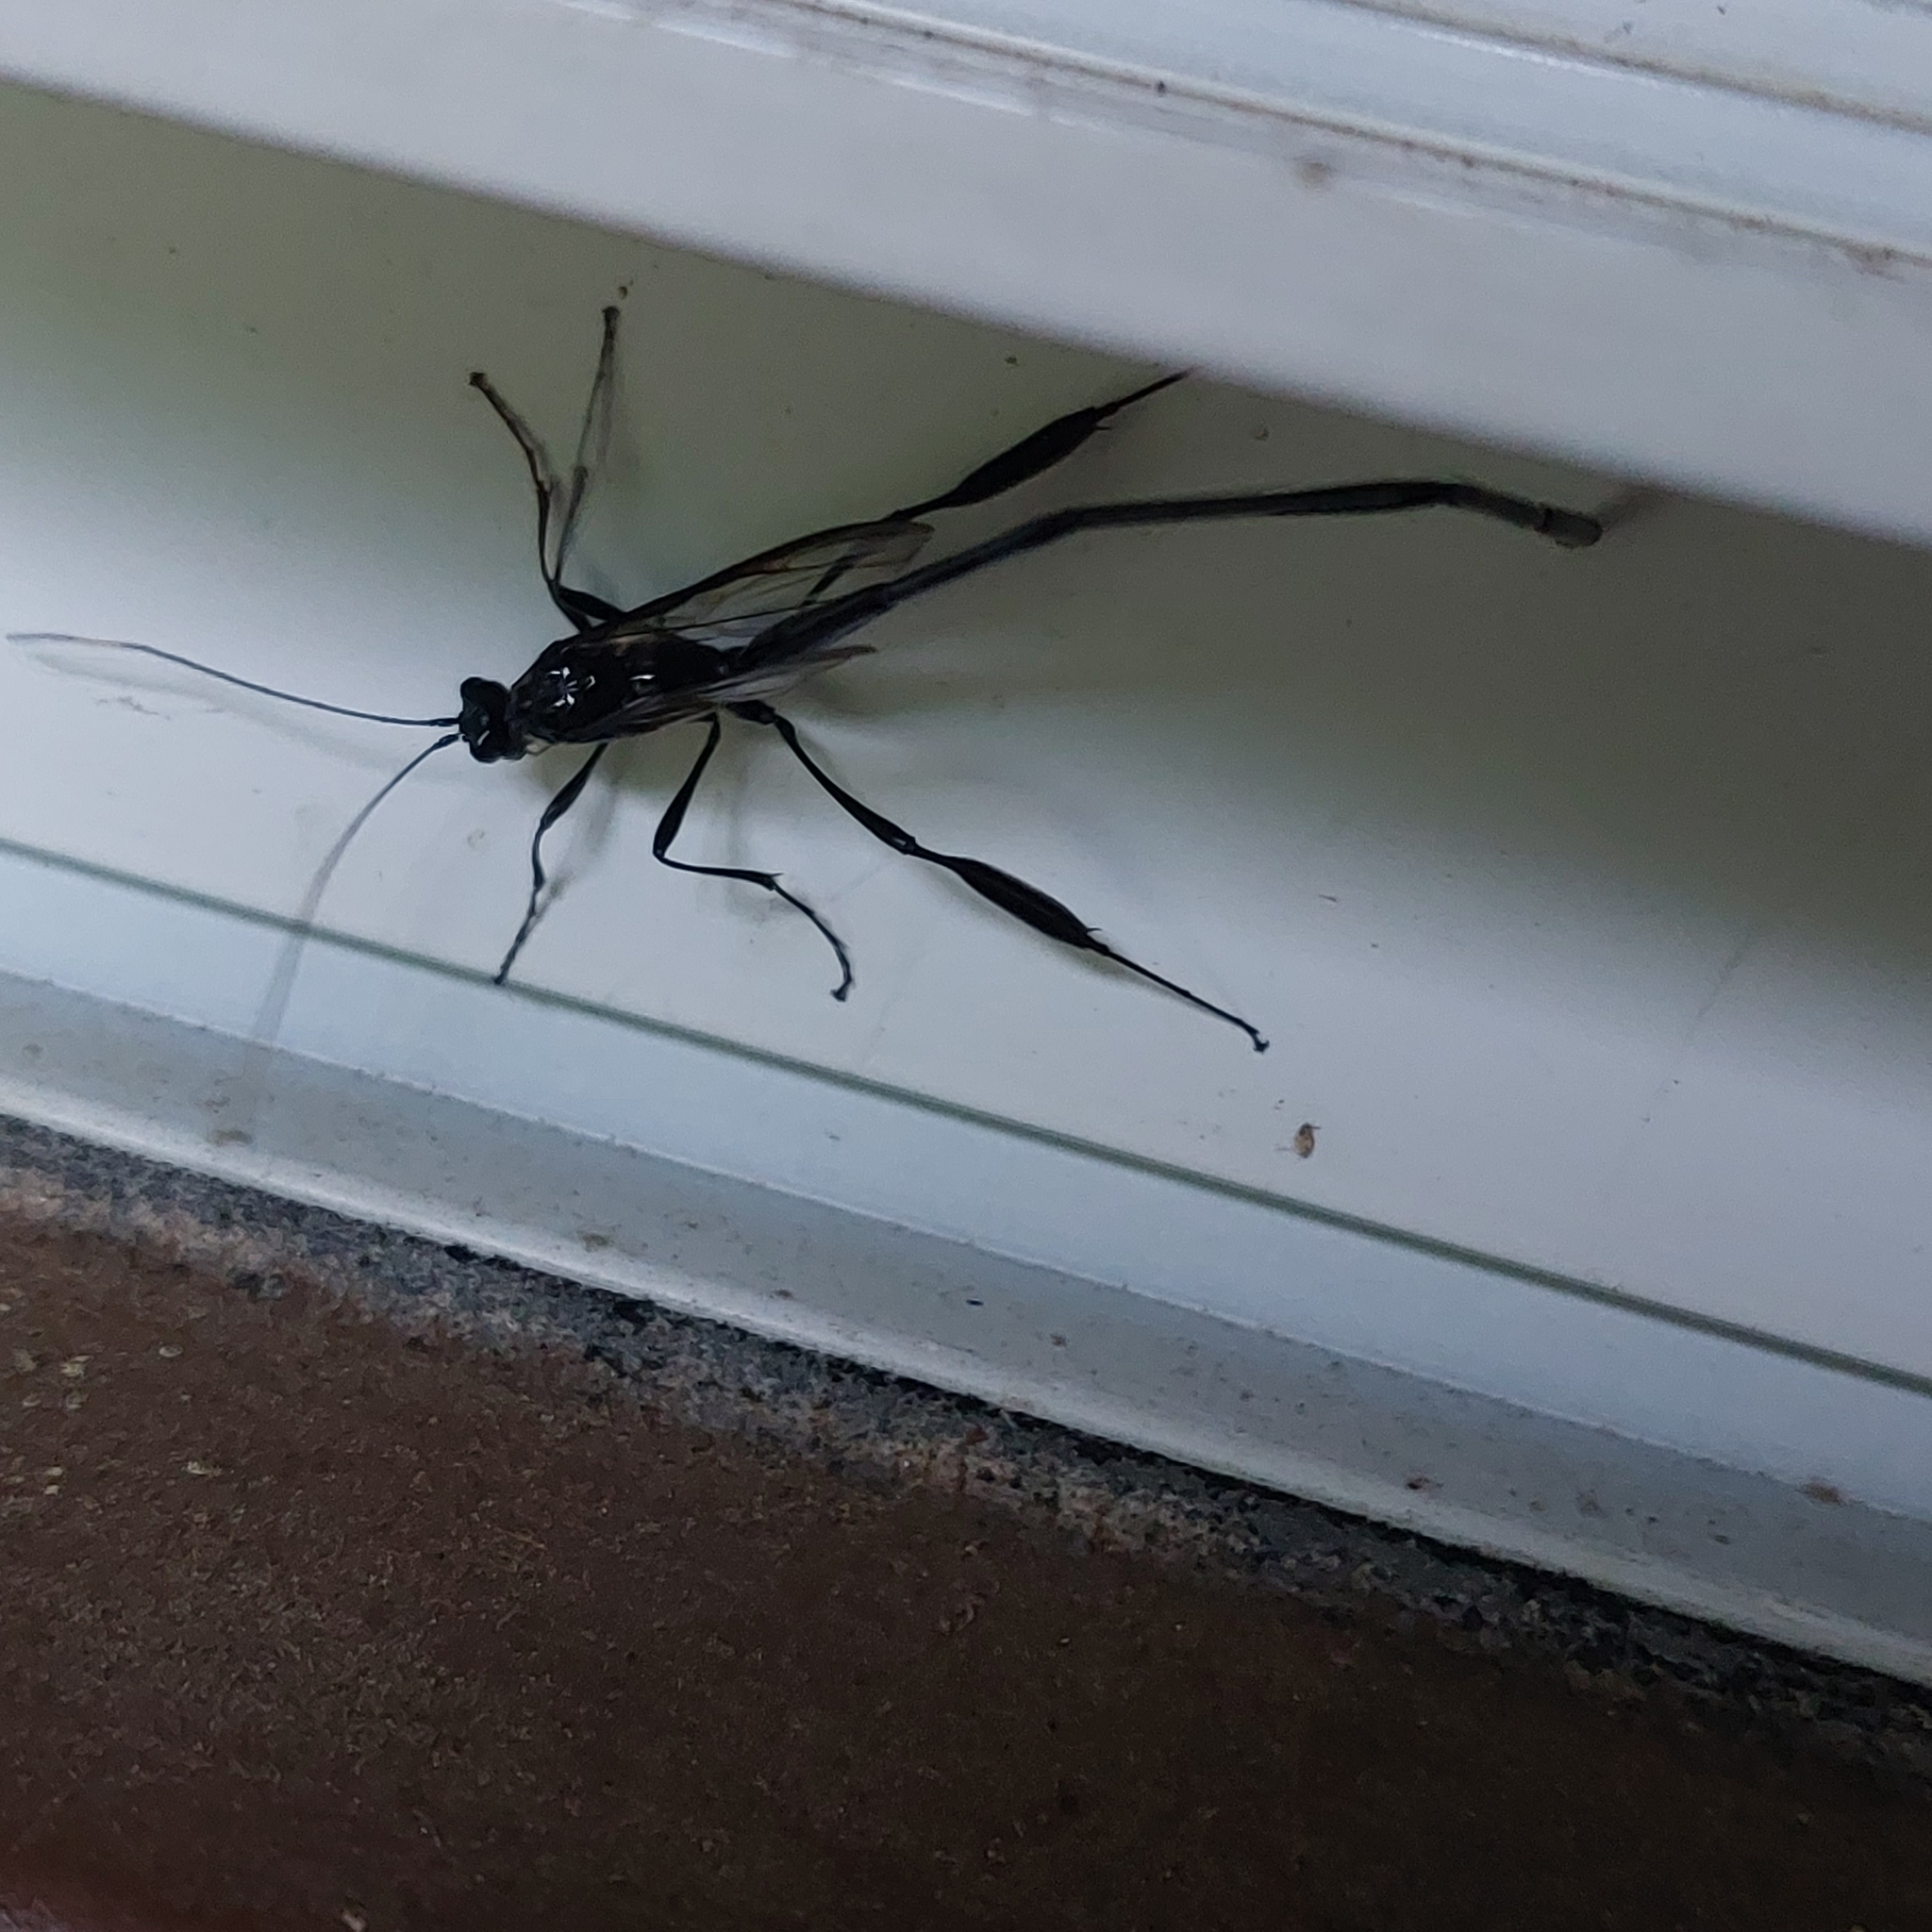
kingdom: Animalia
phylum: Arthropoda
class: Insecta
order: Hymenoptera
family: Pelecinidae
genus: Pelecinus
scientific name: Pelecinus polyturator
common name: American pelecinid wasp
